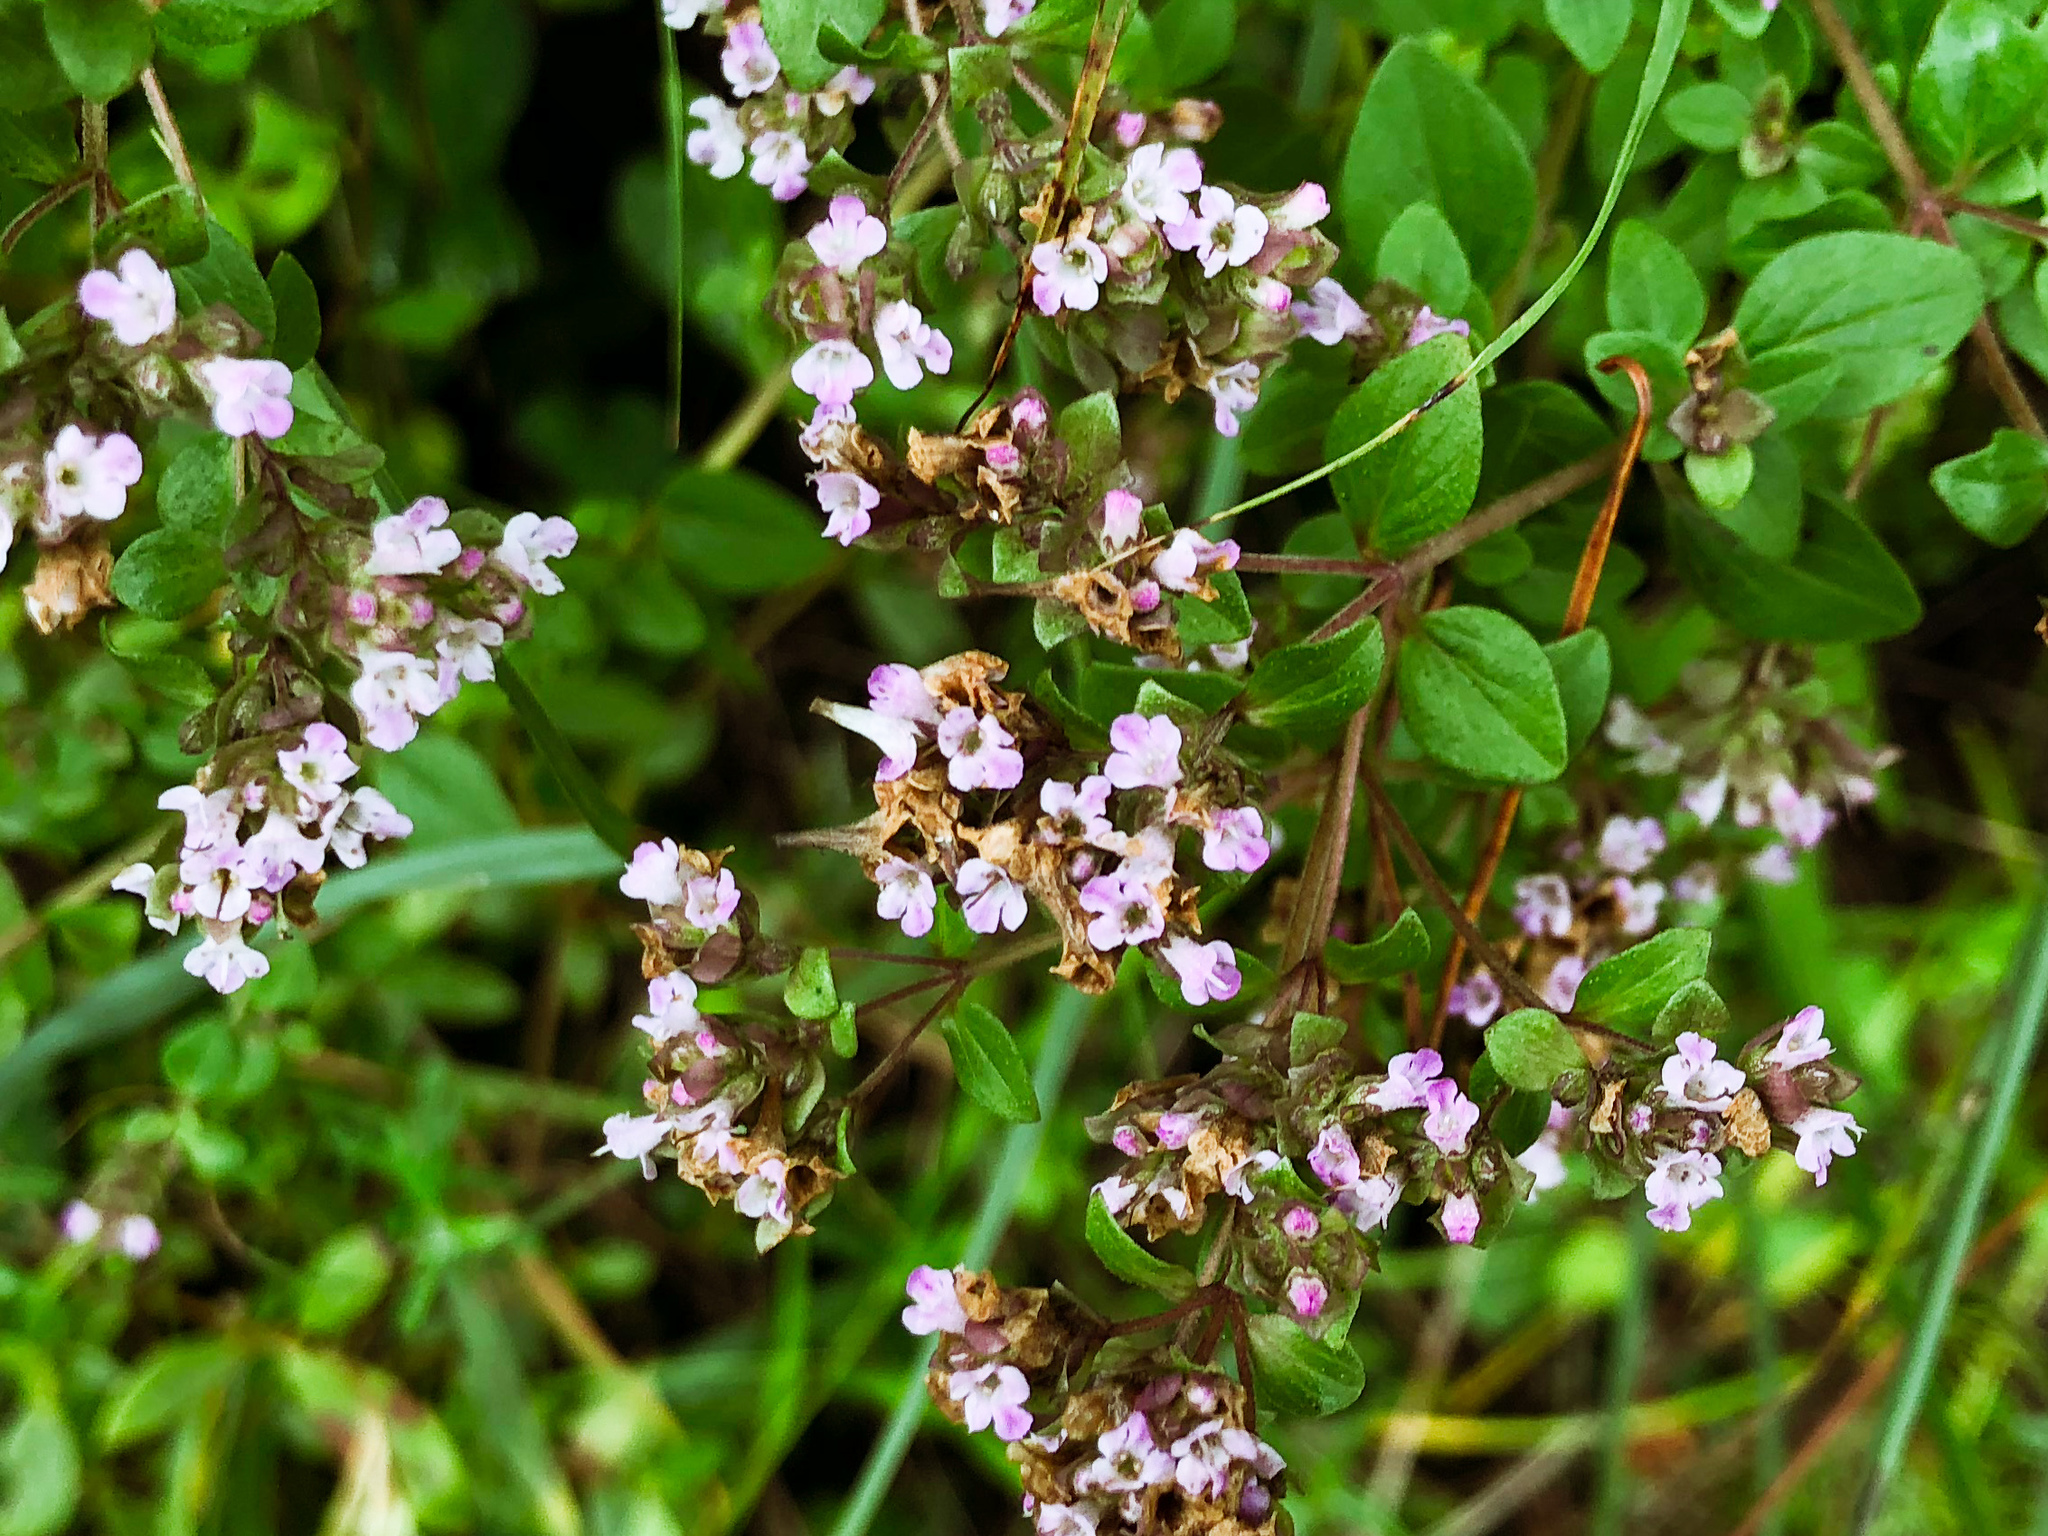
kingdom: Plantae
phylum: Tracheophyta
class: Magnoliopsida
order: Lamiales
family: Lamiaceae
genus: Origanum
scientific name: Origanum vulgare
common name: Wild marjoram
